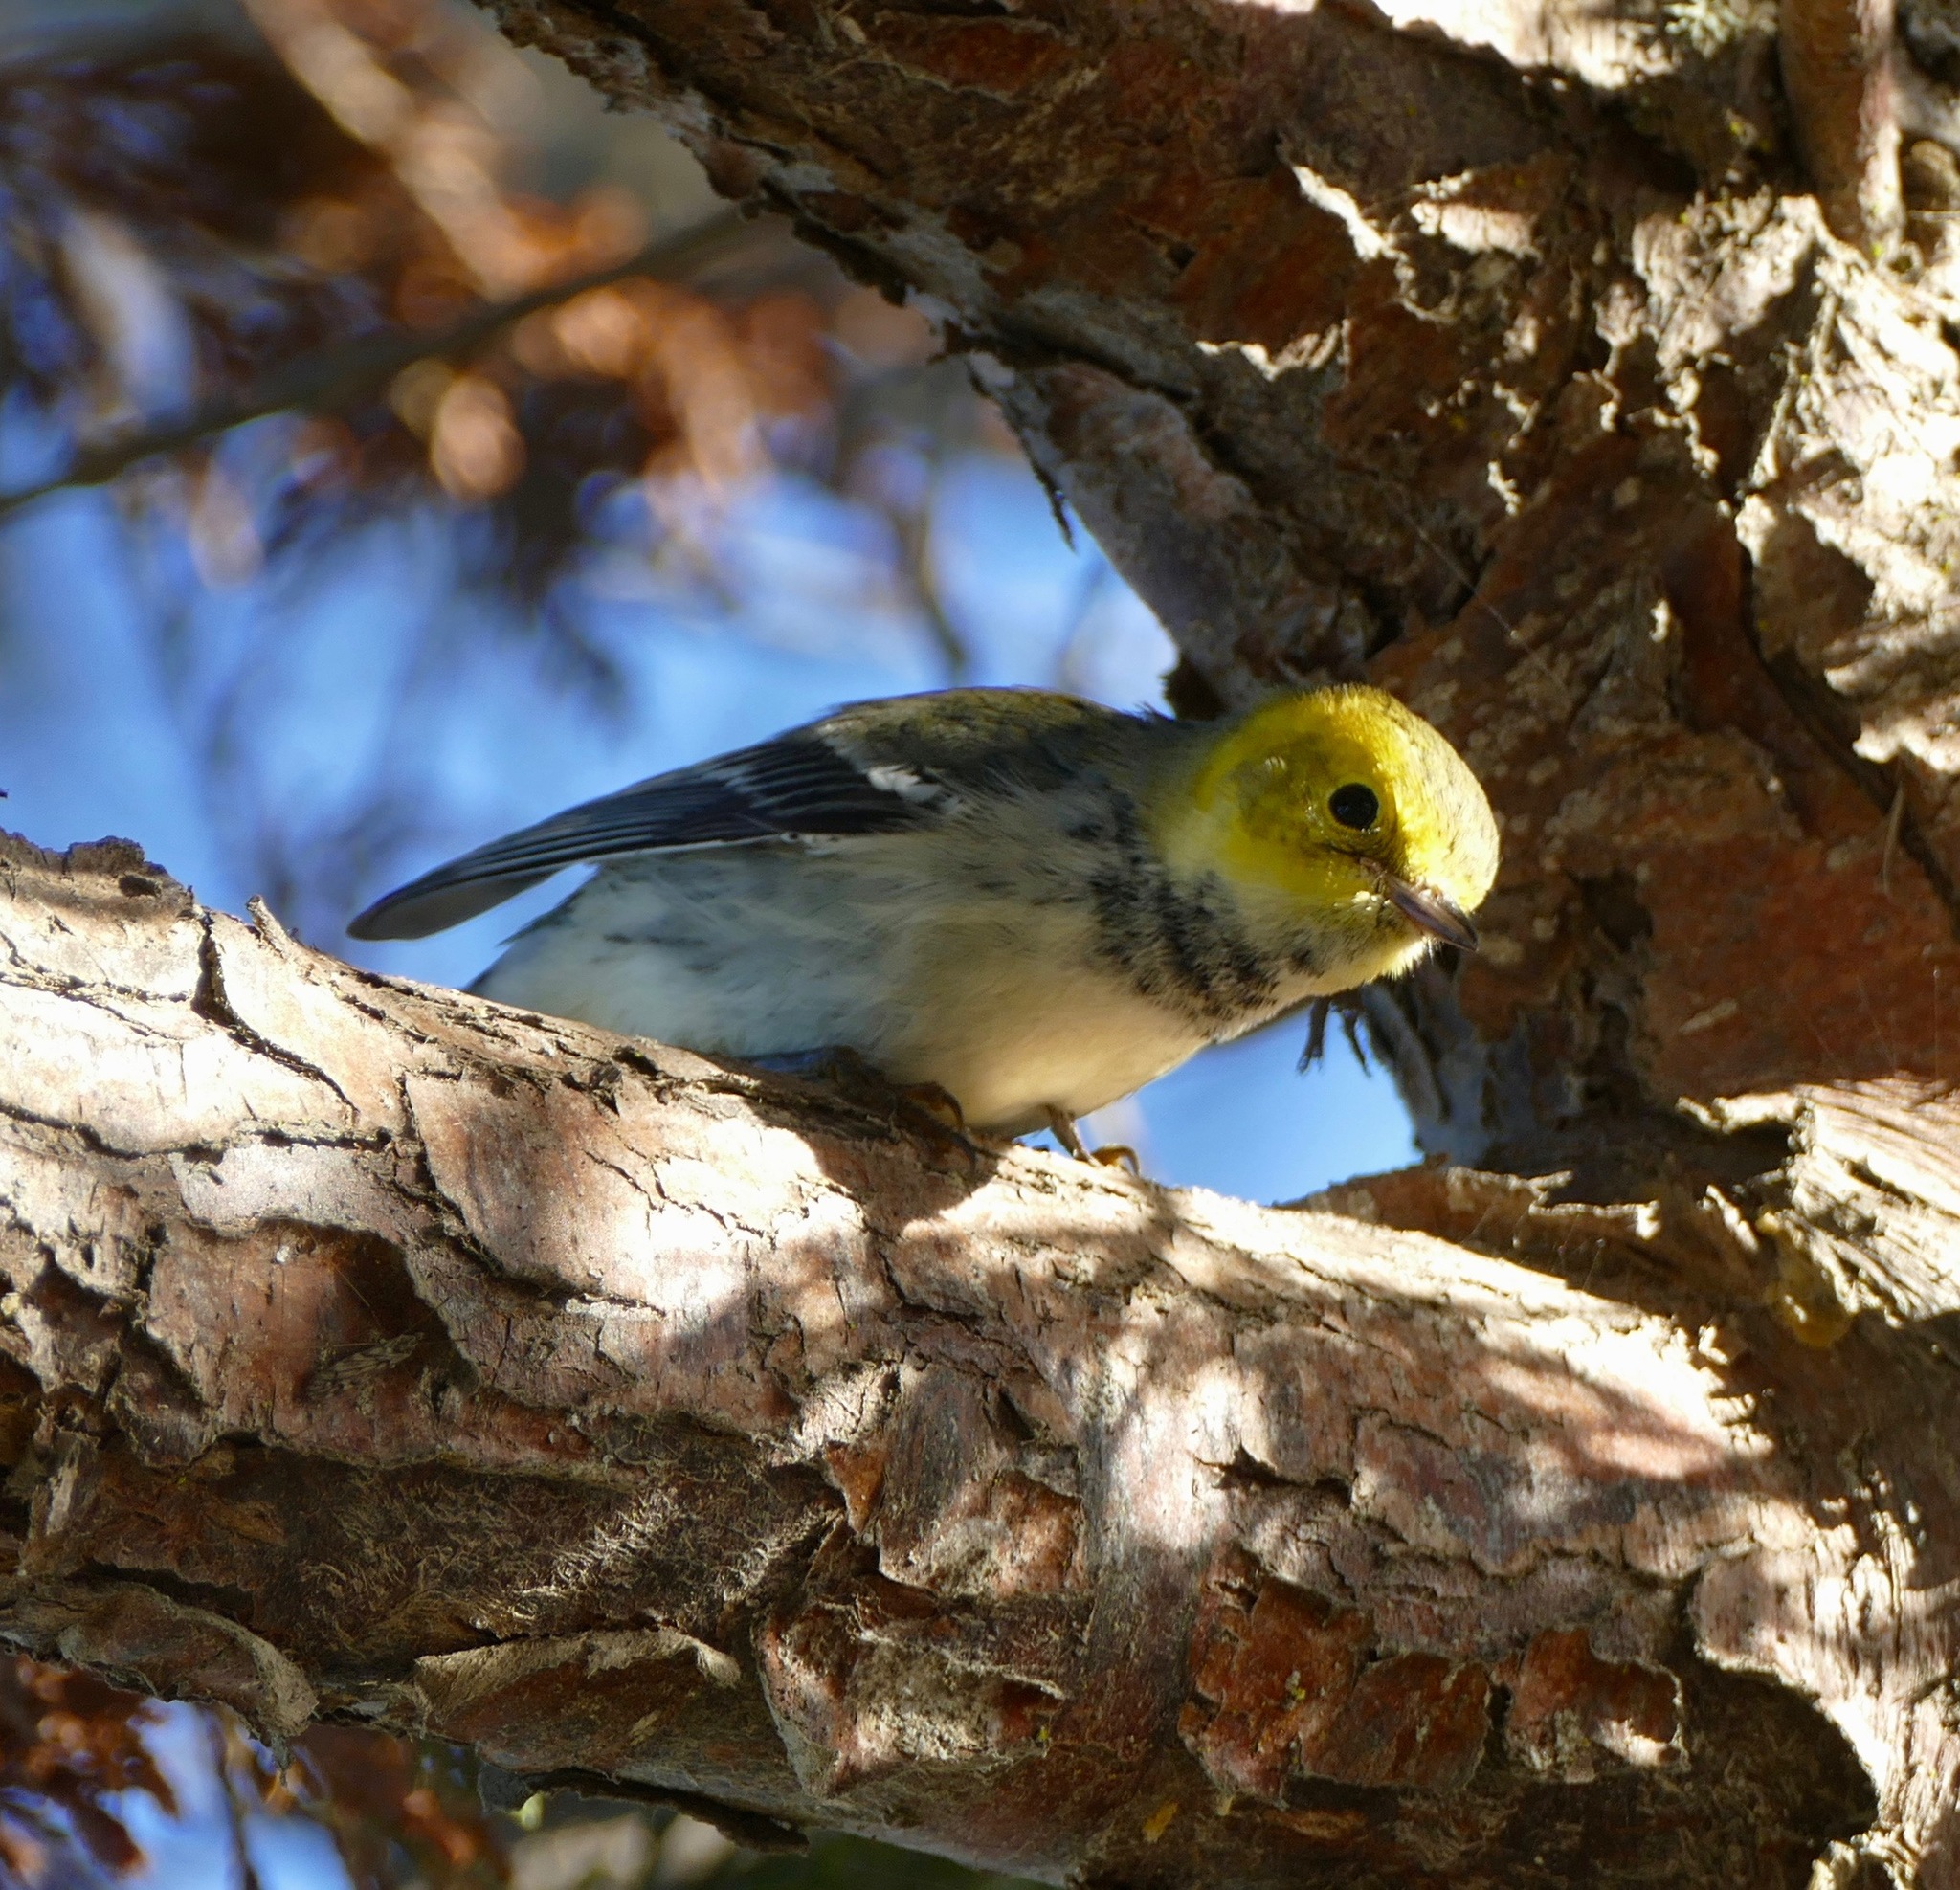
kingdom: Animalia
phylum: Chordata
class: Aves
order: Passeriformes
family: Parulidae
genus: Setophaga
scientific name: Setophaga occidentalis
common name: Hermit warbler
